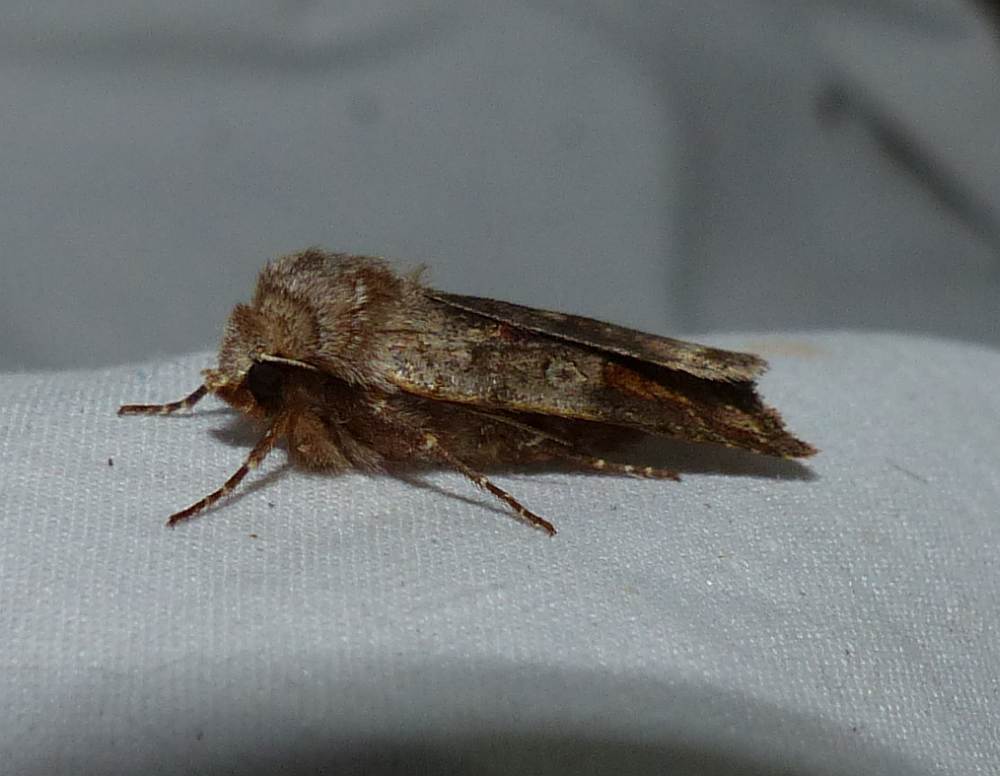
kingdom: Animalia
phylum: Arthropoda
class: Insecta
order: Lepidoptera
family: Noctuidae
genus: Cerastis
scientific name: Cerastis salicarum
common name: Willow dart
